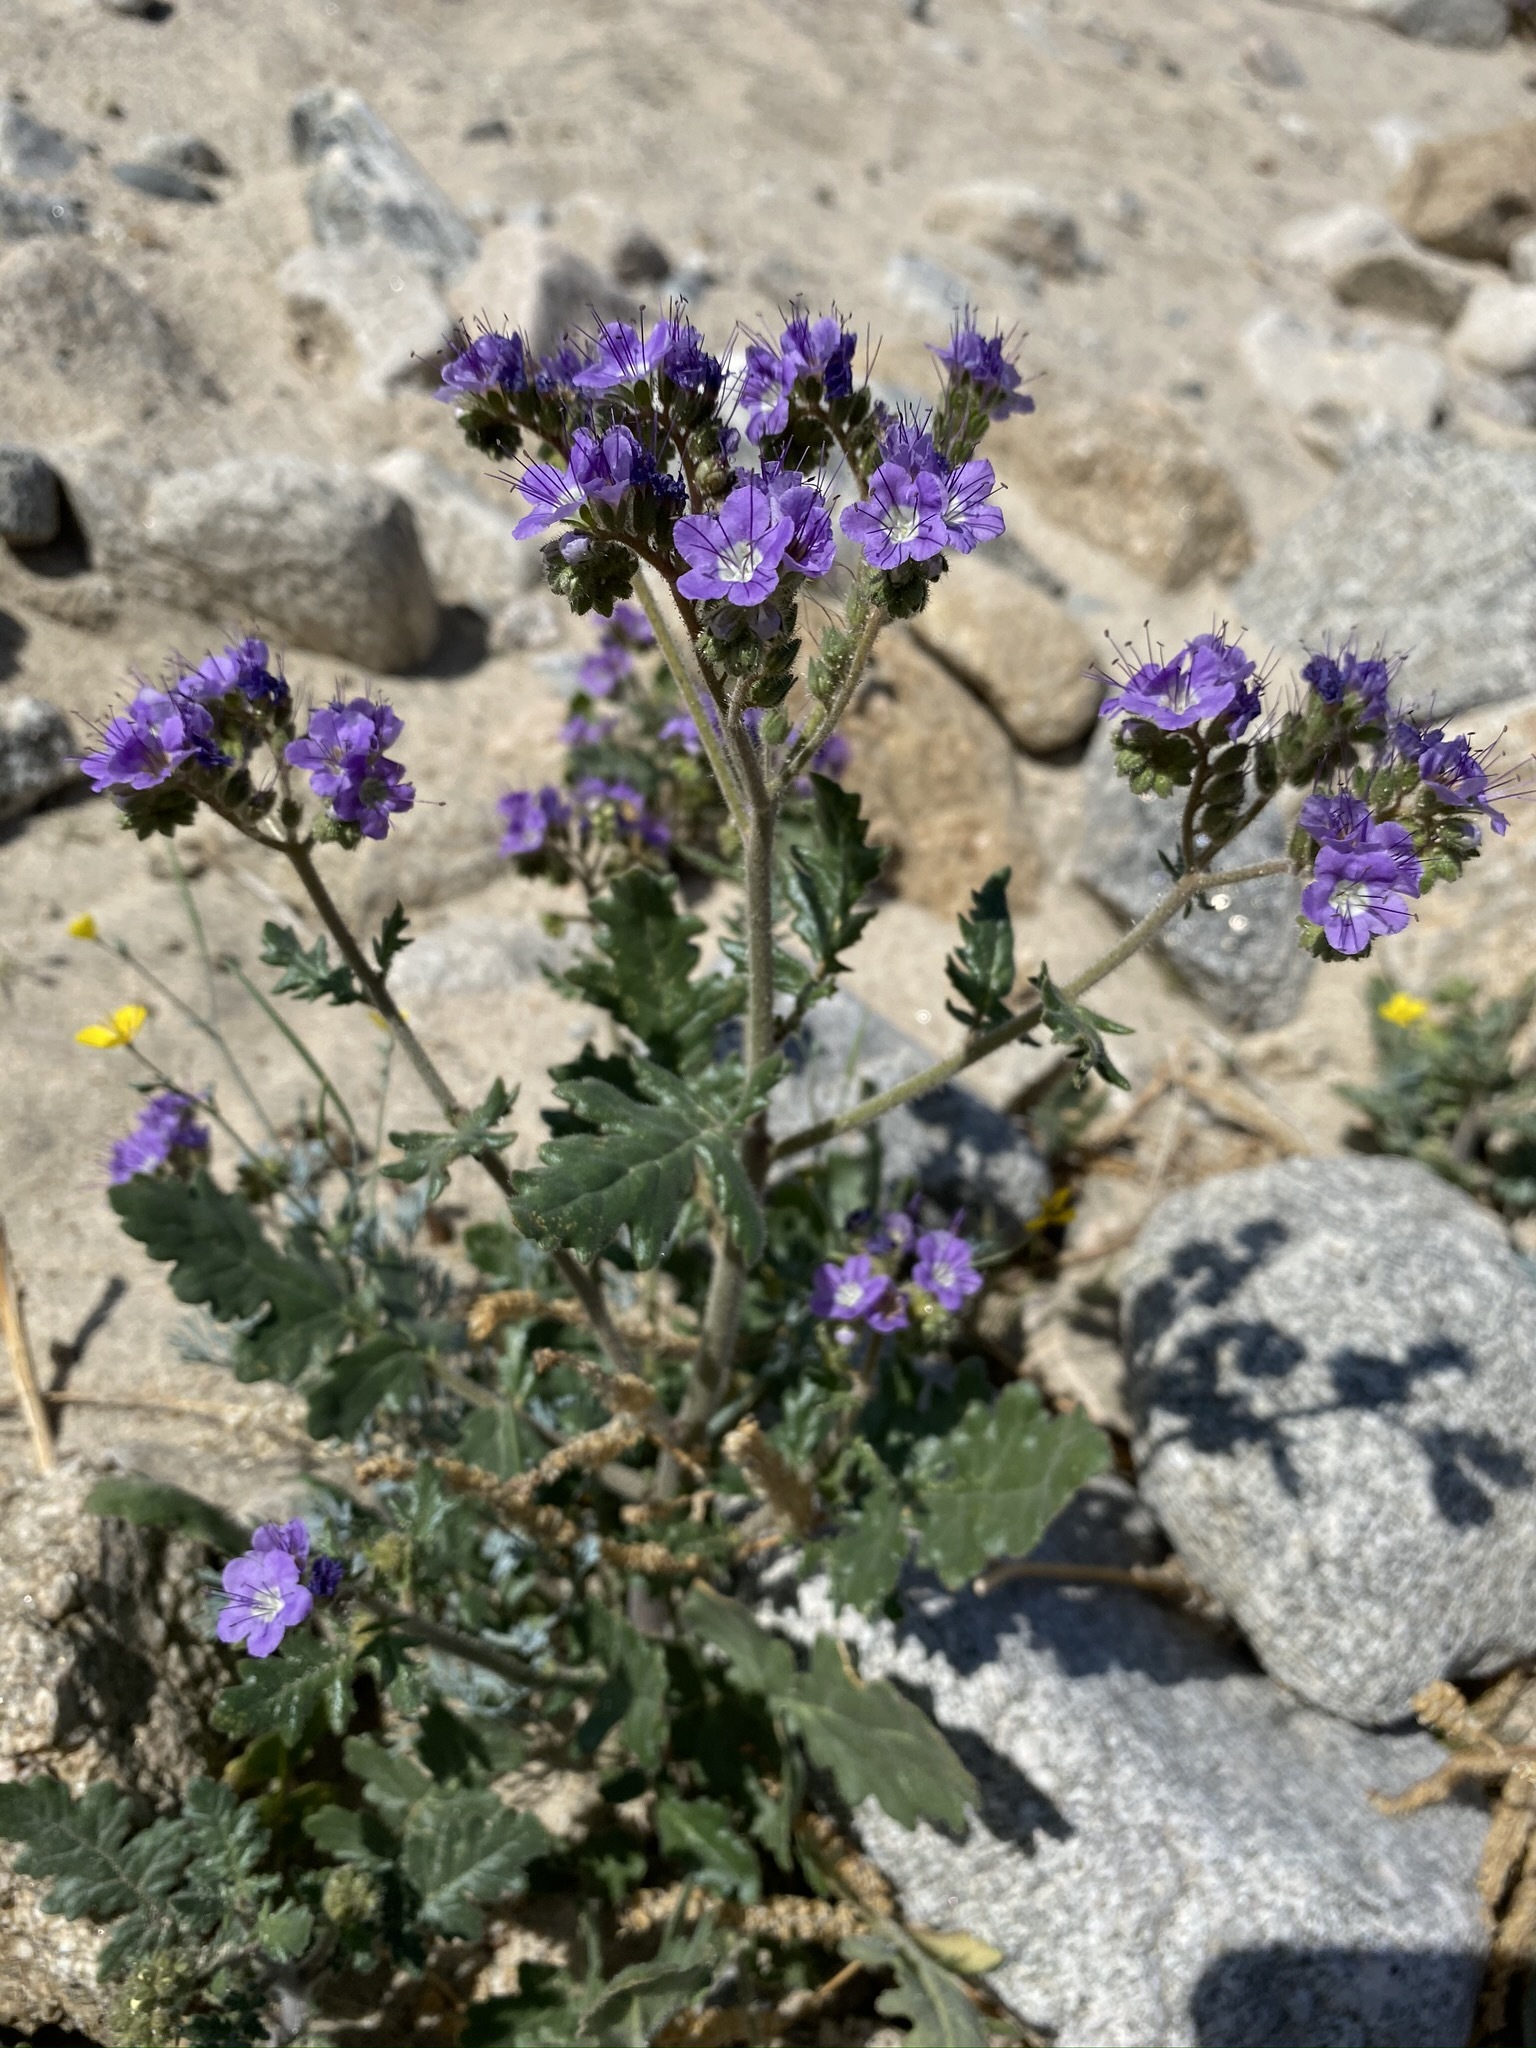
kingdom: Plantae
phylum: Tracheophyta
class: Magnoliopsida
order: Boraginales
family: Hydrophyllaceae
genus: Phacelia
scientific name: Phacelia crenulata
